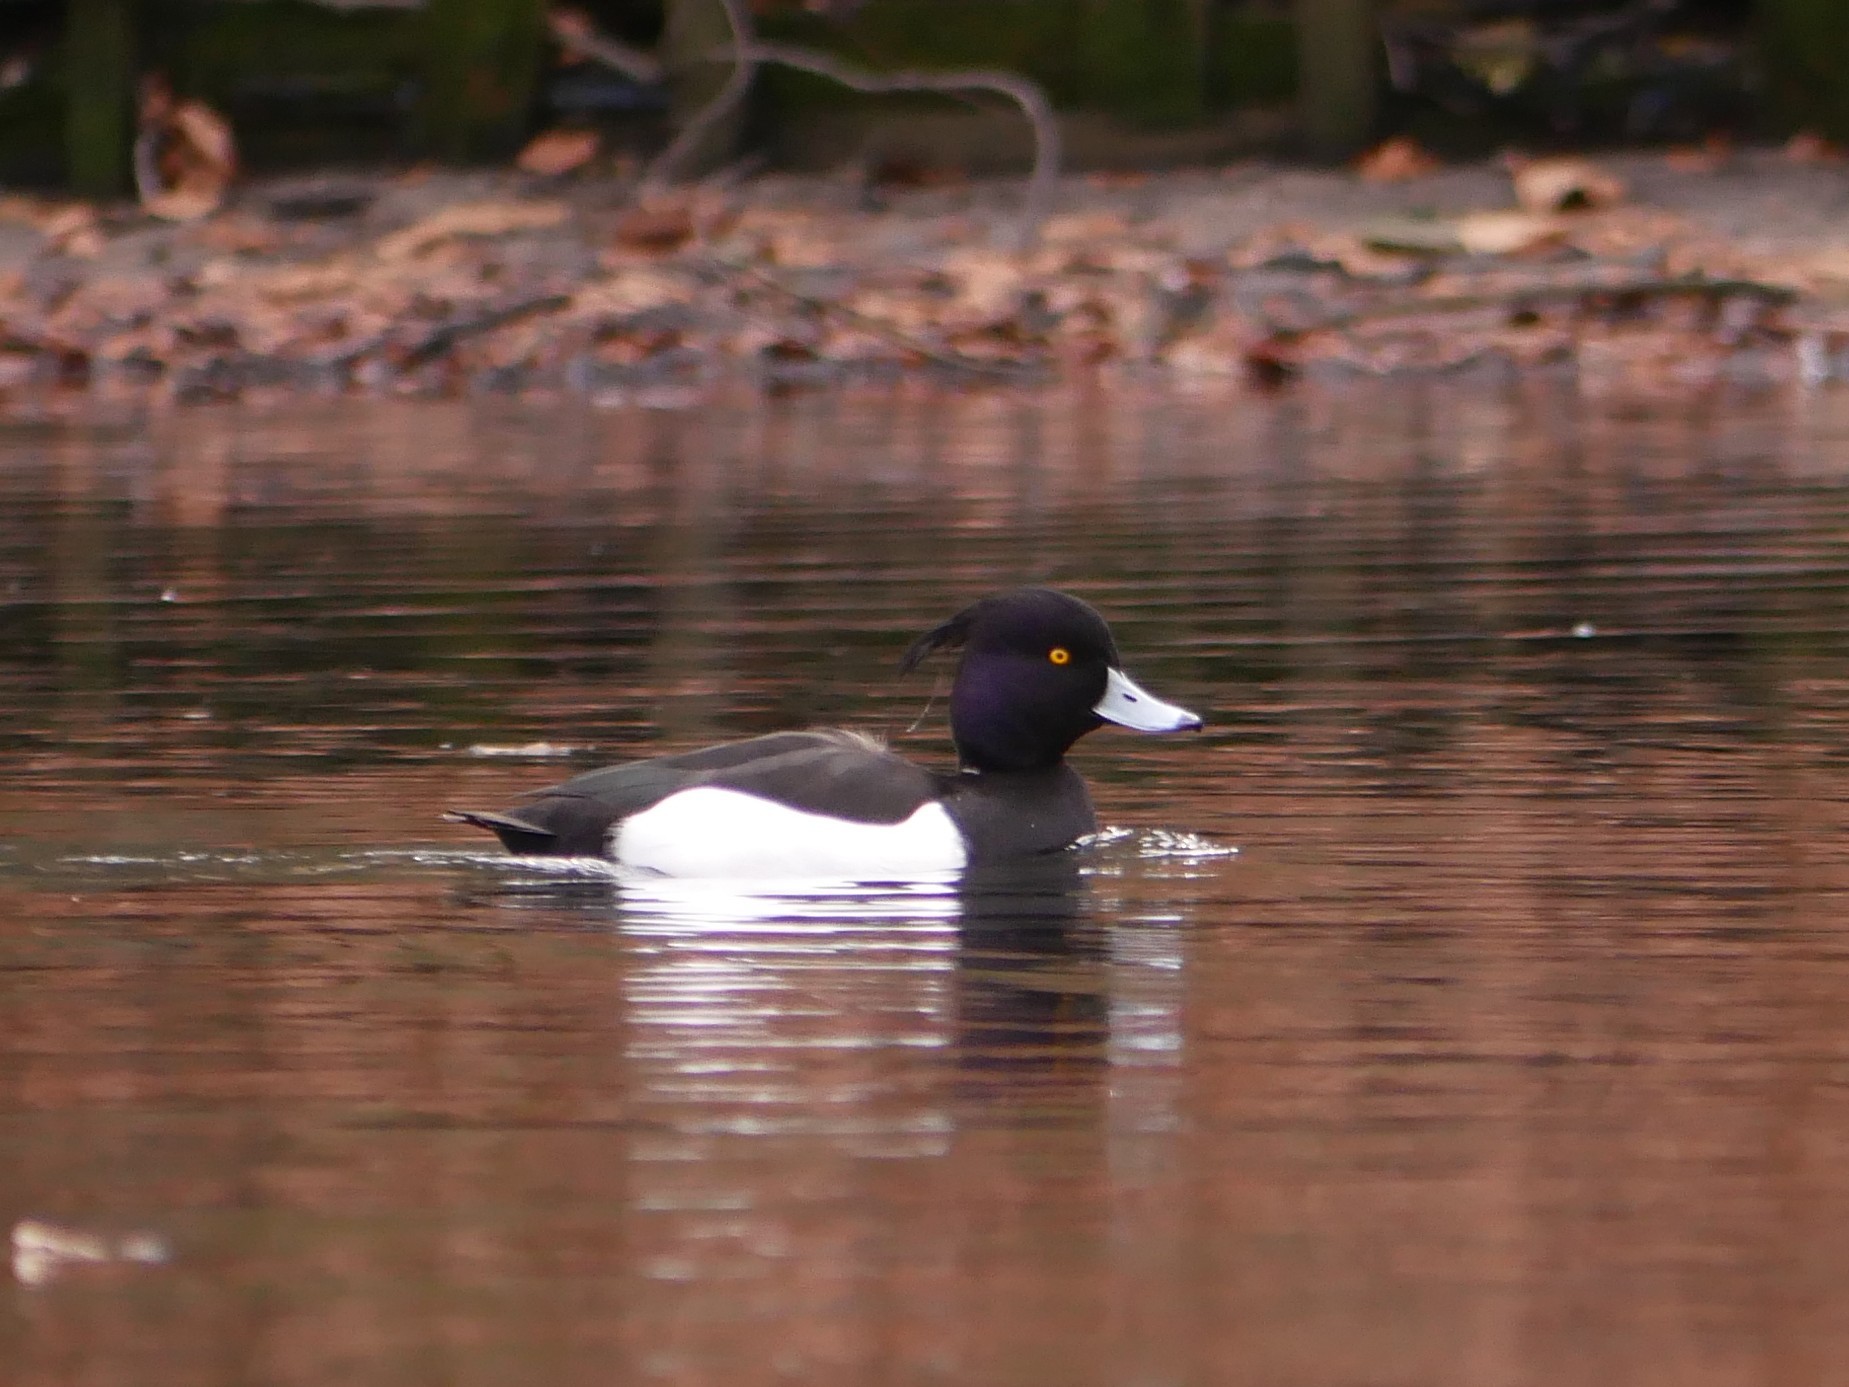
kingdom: Animalia
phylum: Chordata
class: Aves
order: Anseriformes
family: Anatidae
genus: Aythya
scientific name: Aythya fuligula
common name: Tufted duck
